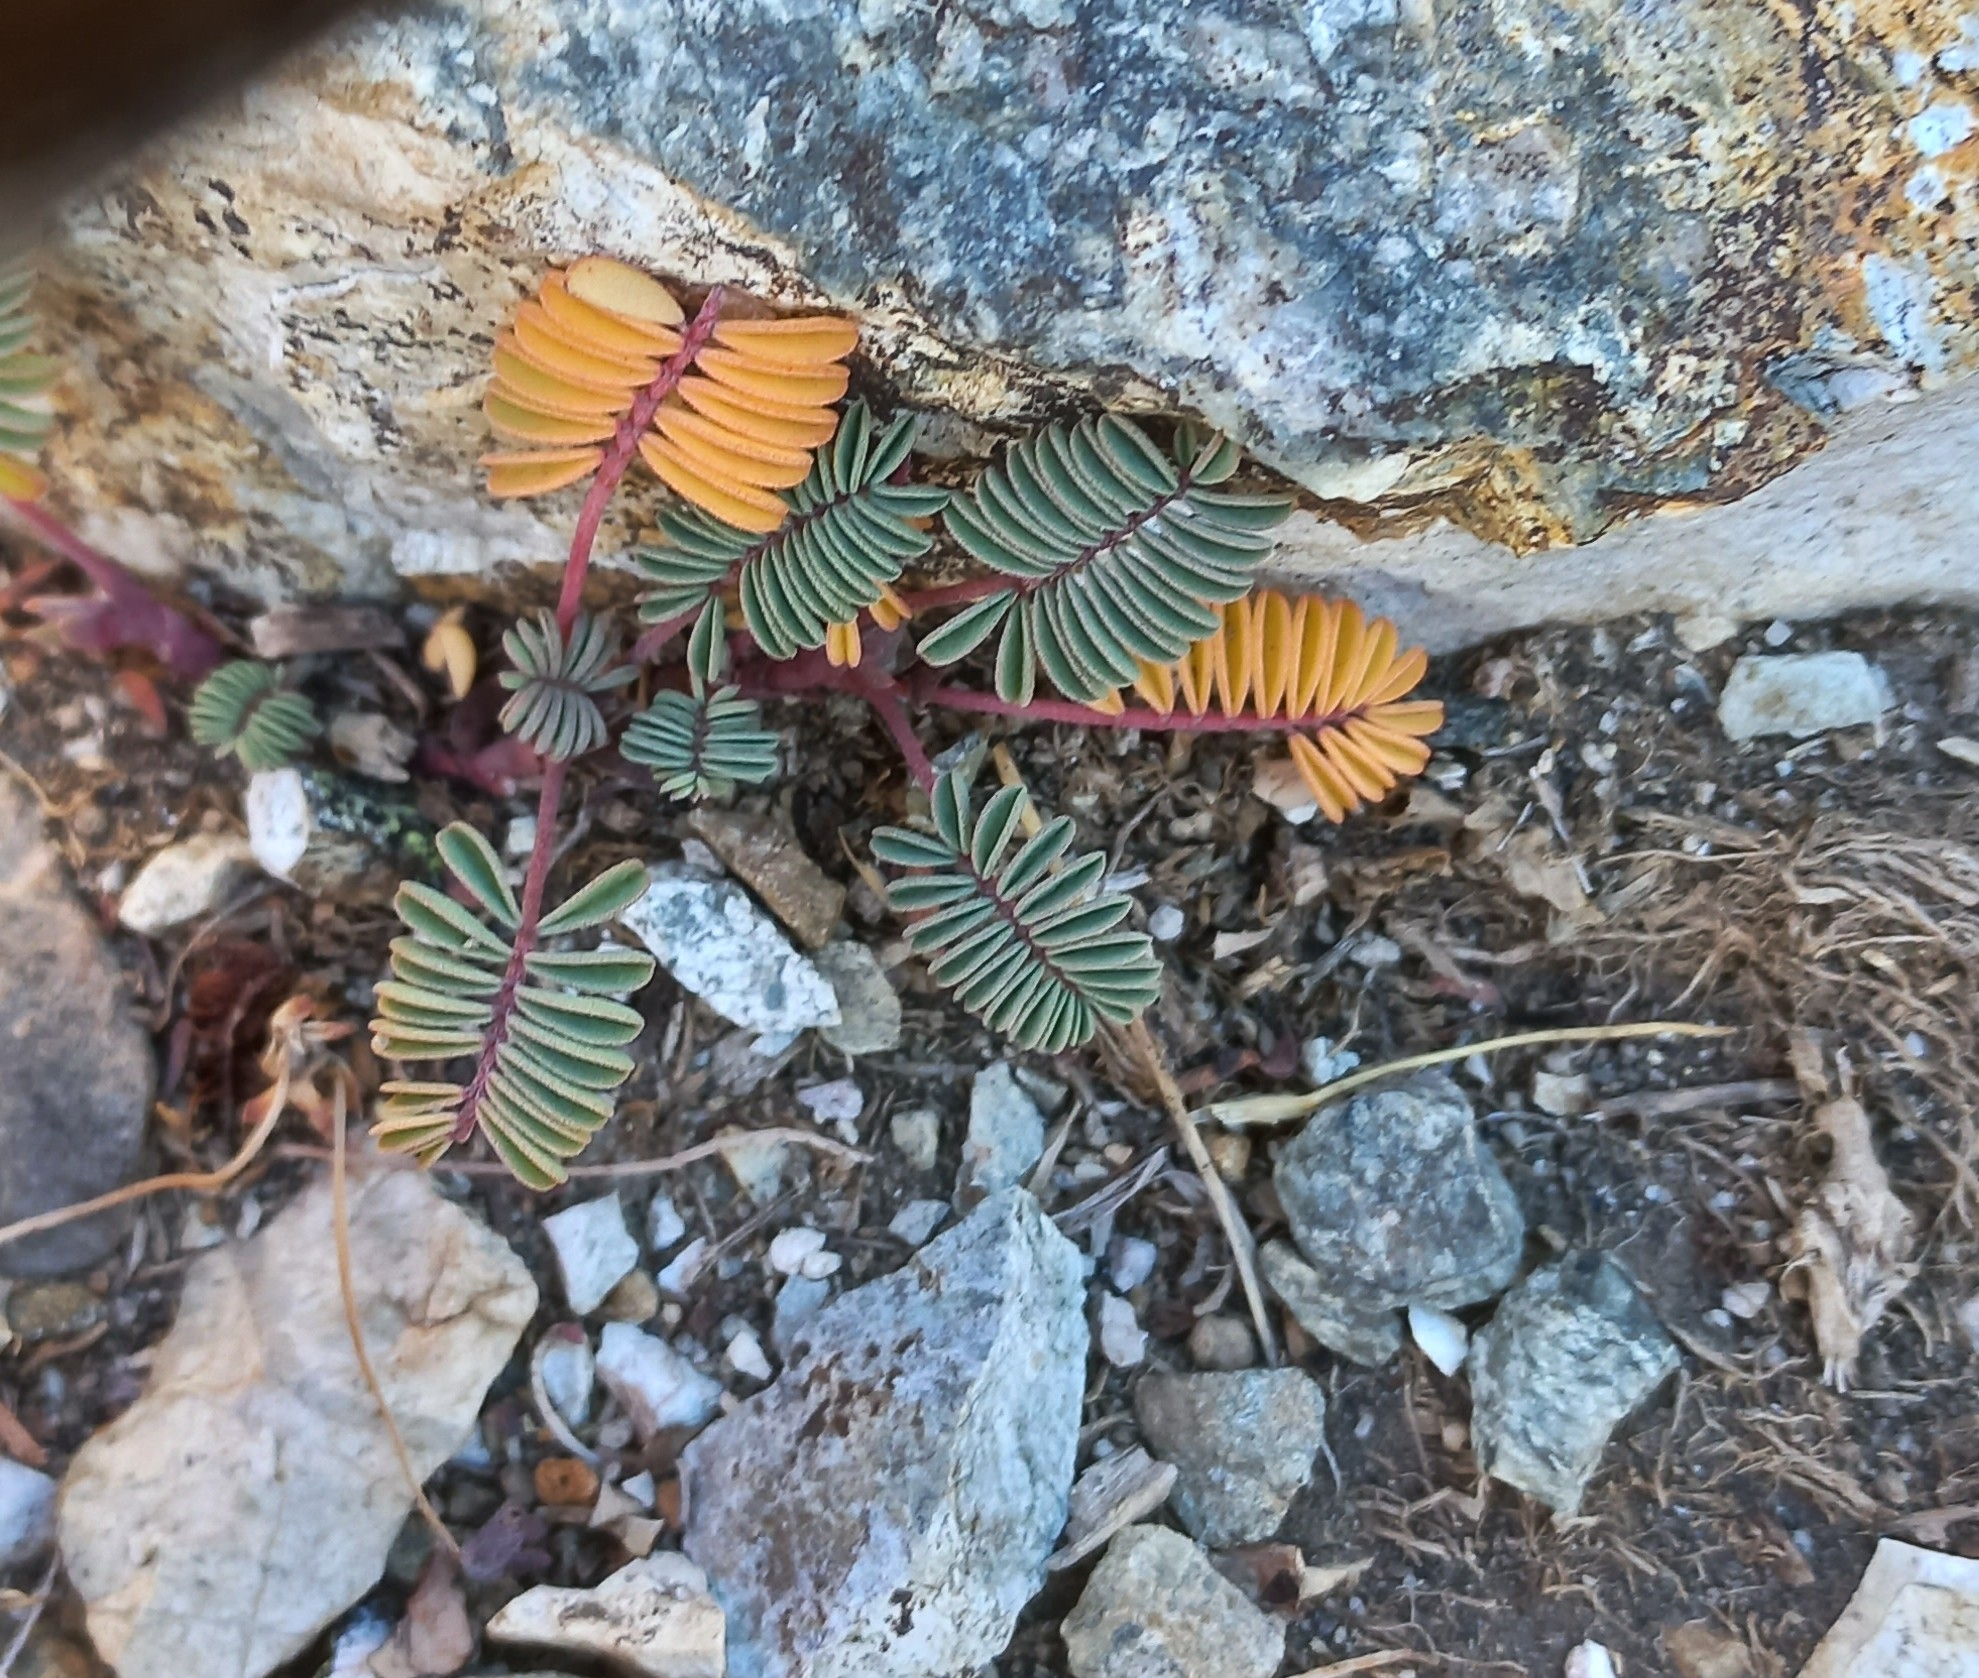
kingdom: Plantae
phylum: Tracheophyta
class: Magnoliopsida
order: Fabales
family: Fabaceae
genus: Adesmia
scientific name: Adesmia longipes
